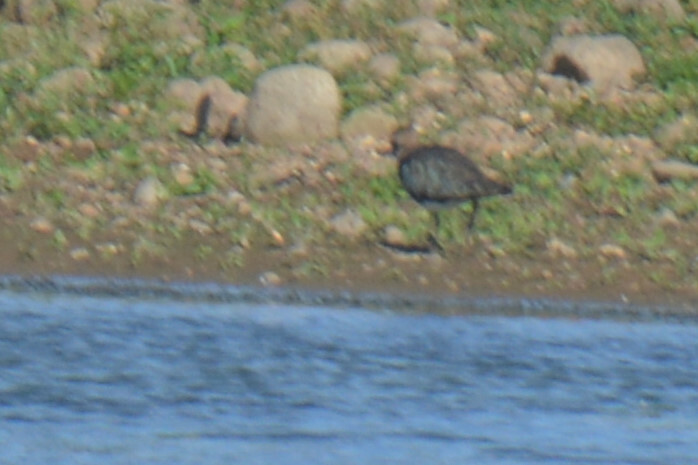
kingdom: Animalia
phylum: Chordata
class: Aves
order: Charadriiformes
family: Charadriidae
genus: Vanellus
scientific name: Vanellus vanellus
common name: Northern lapwing
